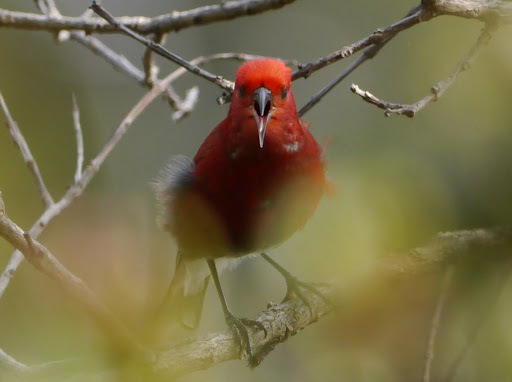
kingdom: Animalia
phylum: Chordata
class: Aves
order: Passeriformes
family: Fringillidae
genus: Himatione
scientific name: Himatione sanguinea
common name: Apapane
